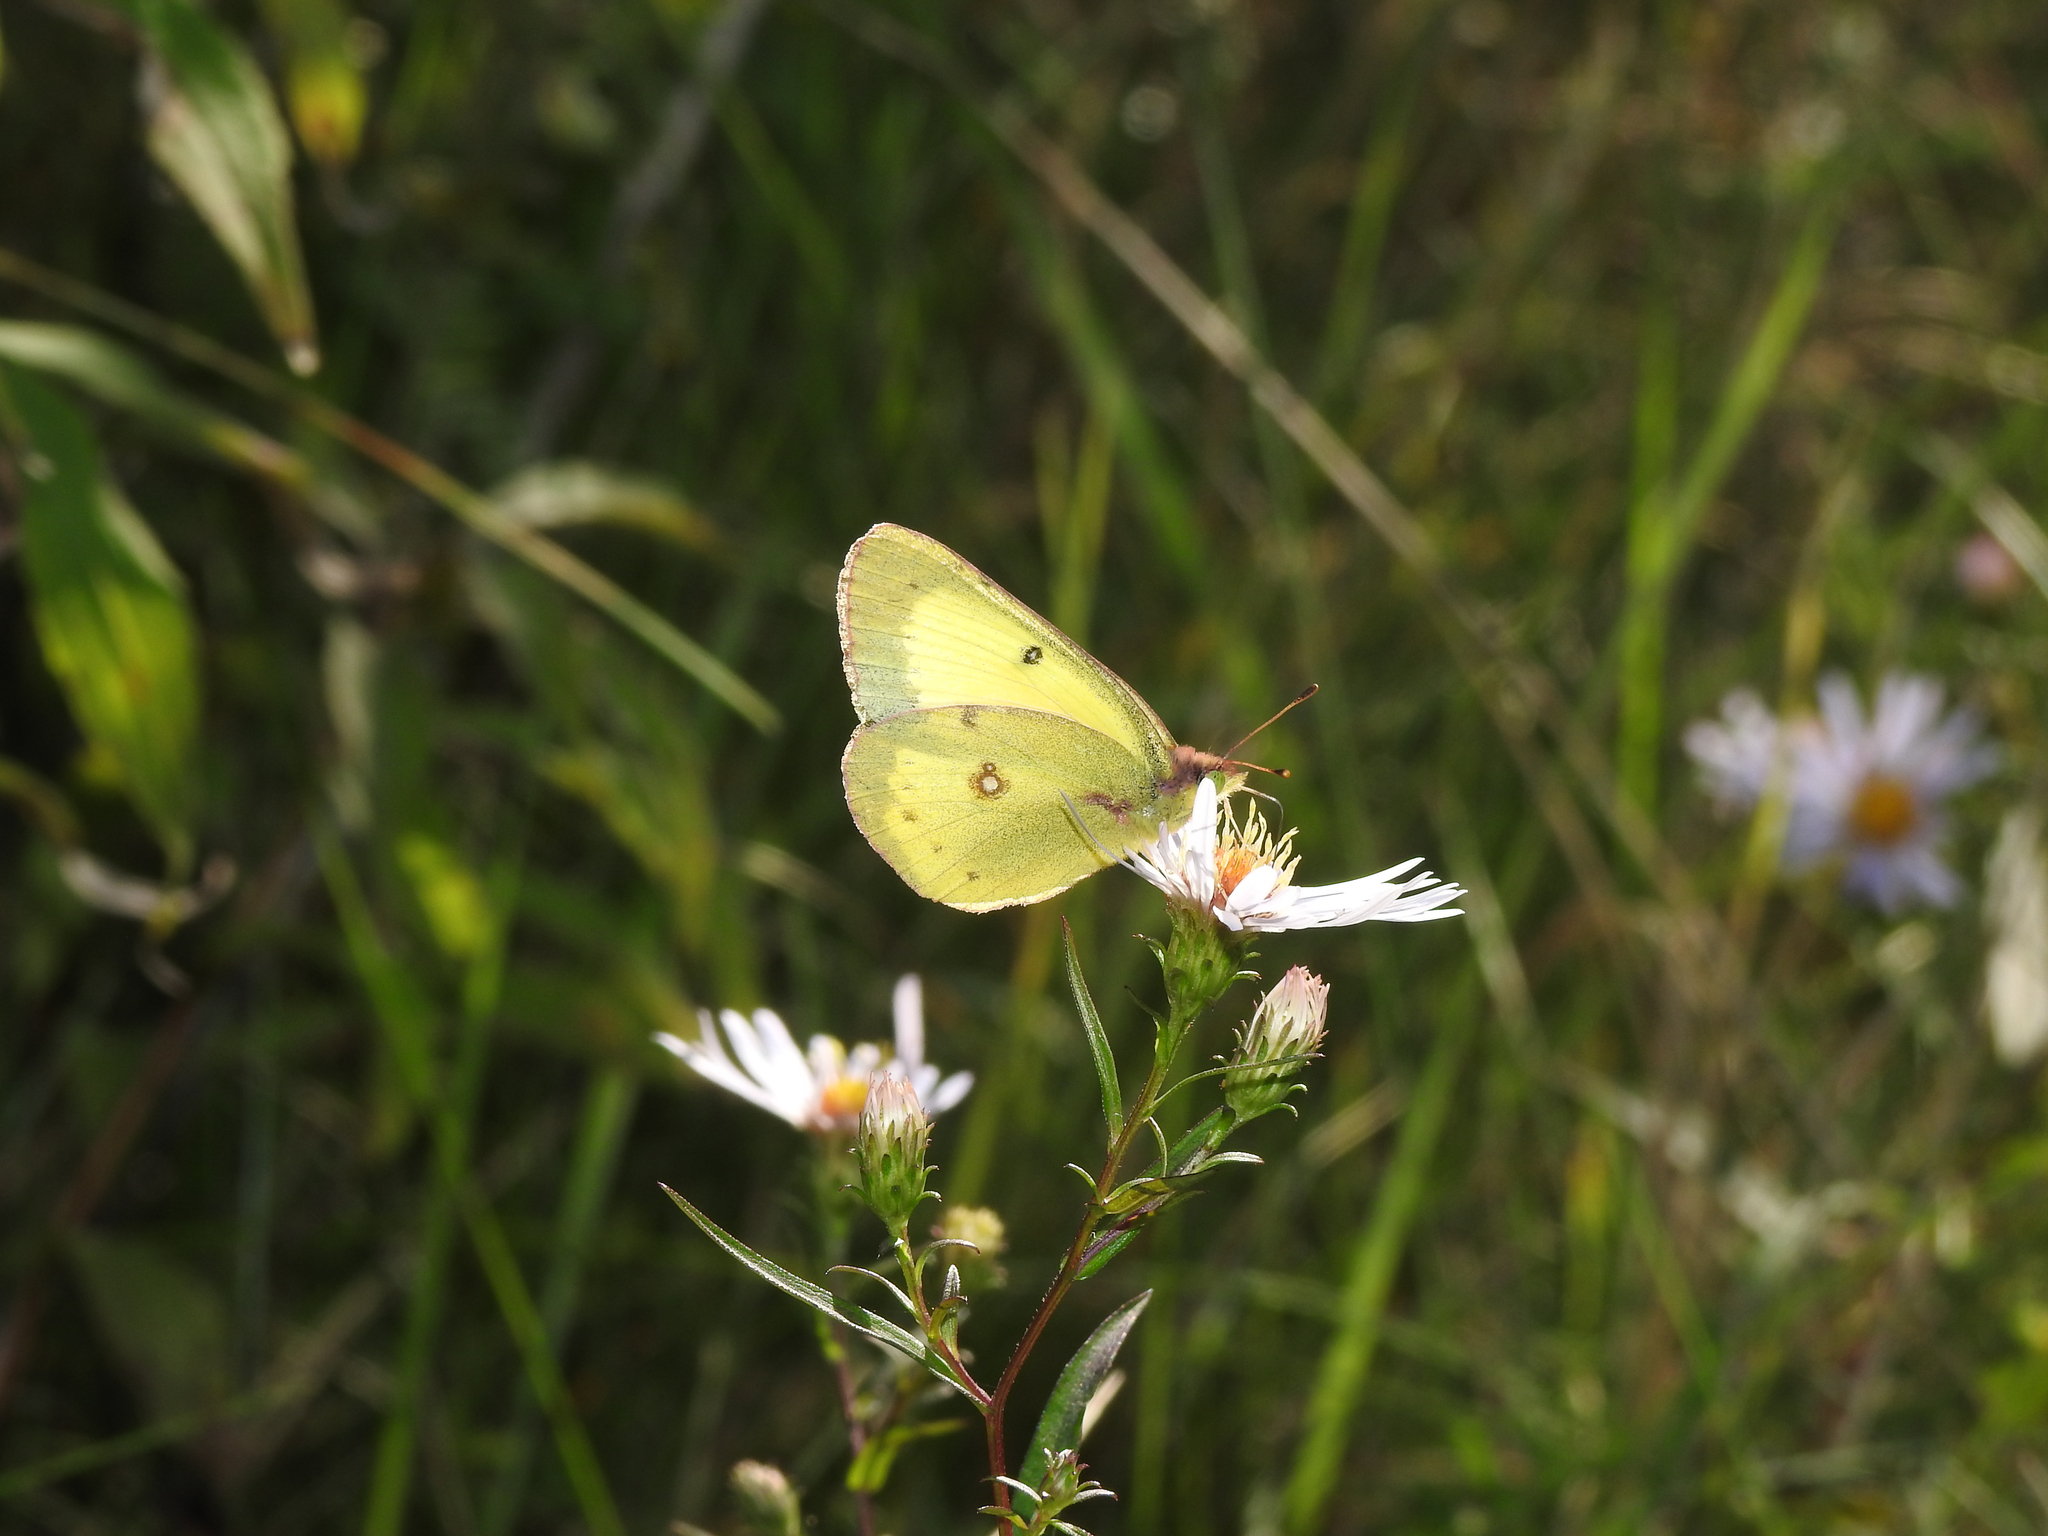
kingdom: Animalia
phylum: Arthropoda
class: Insecta
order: Lepidoptera
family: Pieridae
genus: Colias
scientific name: Colias philodice
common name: Clouded sulphur
